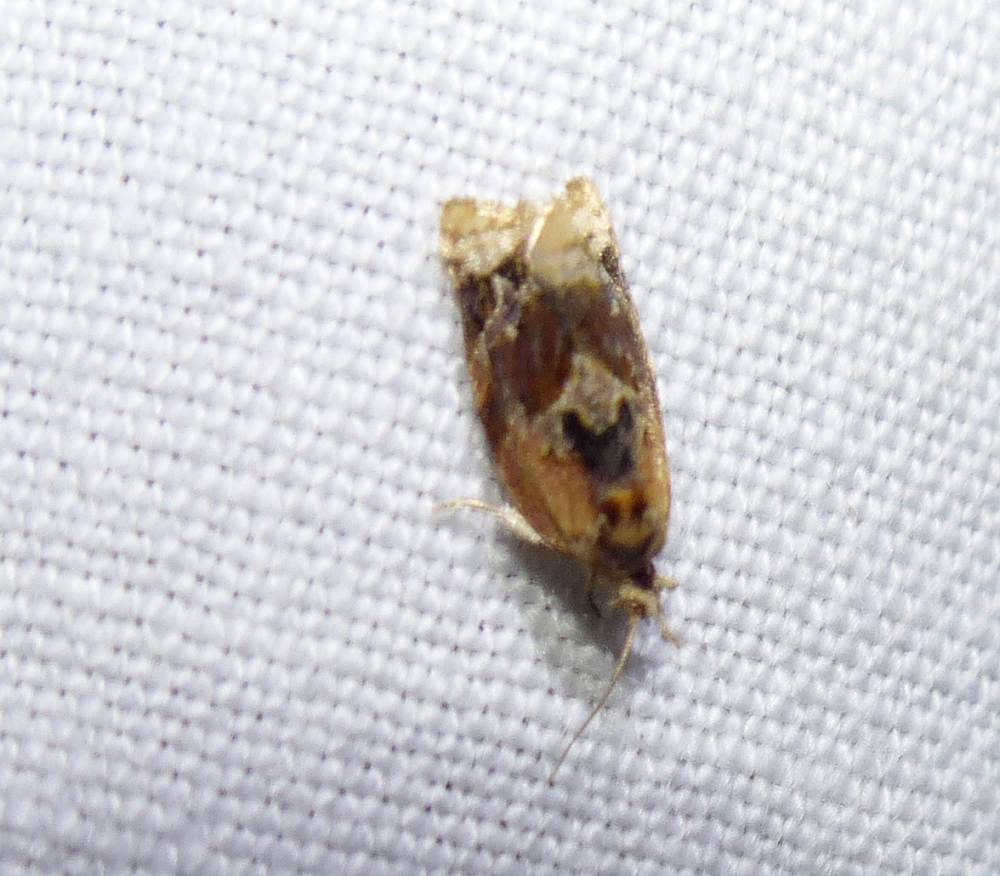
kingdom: Animalia
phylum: Arthropoda
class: Insecta
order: Lepidoptera
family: Tortricidae
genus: Argyrotaenia
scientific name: Argyrotaenia velutinana
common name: Red-banded leafroller moth
